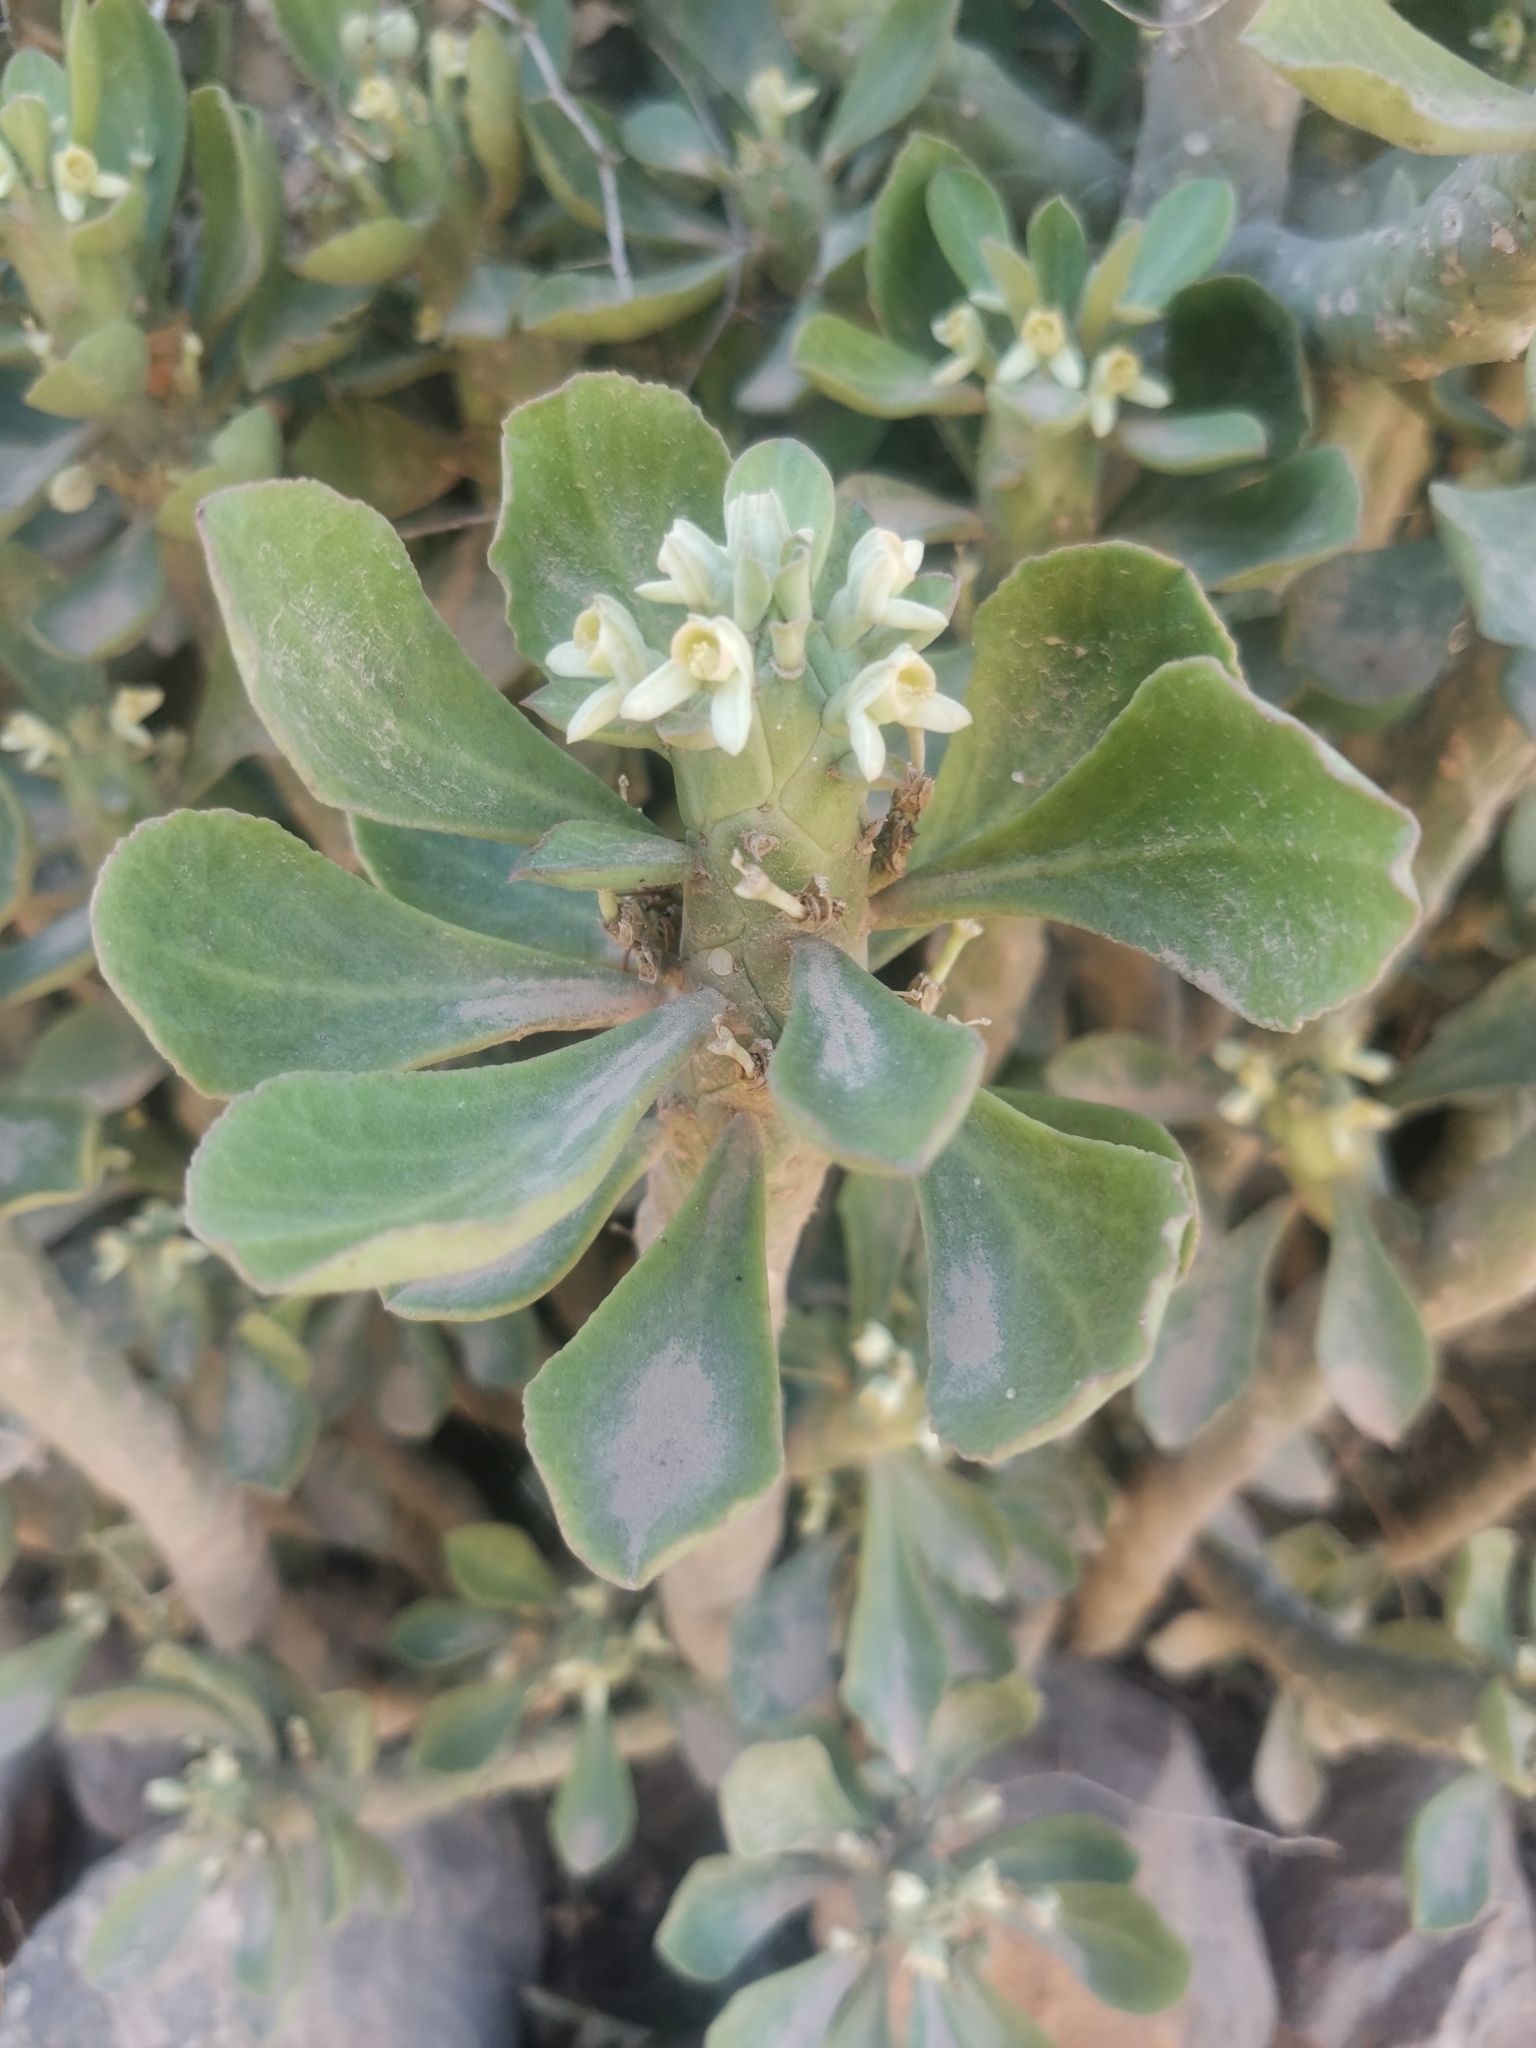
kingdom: Plantae
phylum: Tracheophyta
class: Magnoliopsida
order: Malpighiales
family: Euphorbiaceae
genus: Euphorbia
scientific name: Euphorbia lugardiae
